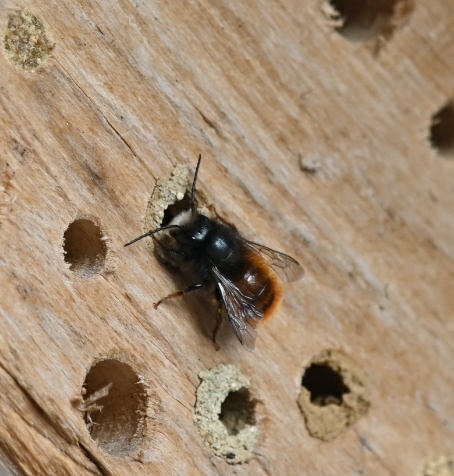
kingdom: Animalia
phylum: Arthropoda
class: Insecta
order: Hymenoptera
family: Megachilidae
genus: Osmia
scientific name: Osmia cornuta
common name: Mason bee
